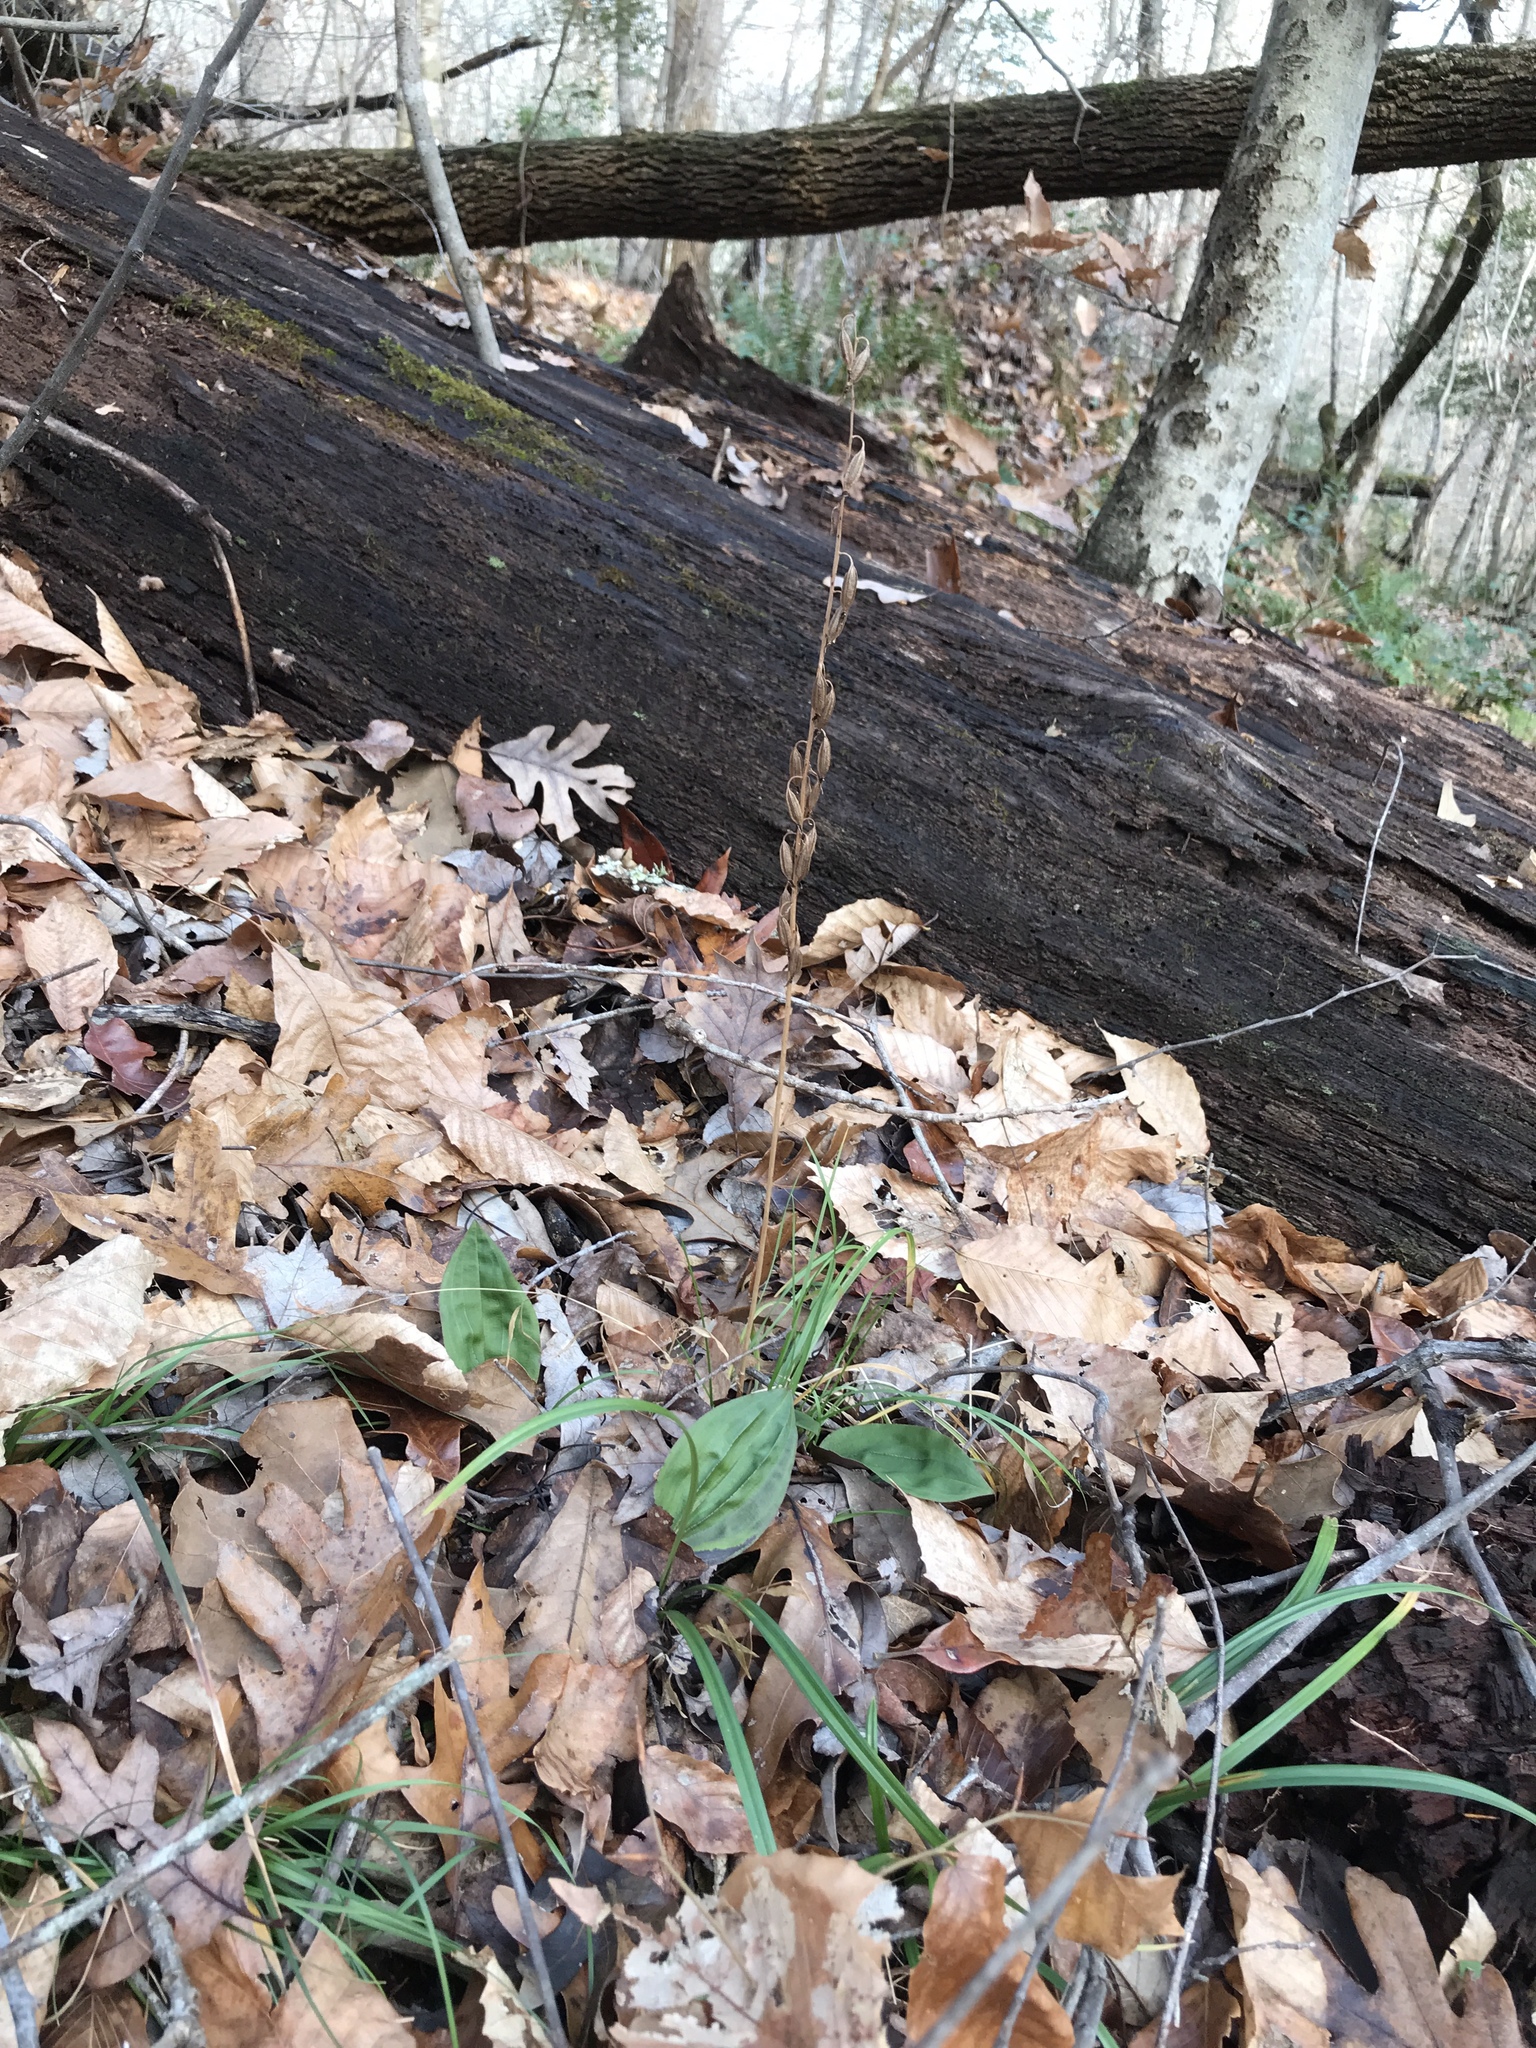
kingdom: Plantae
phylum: Tracheophyta
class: Liliopsida
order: Asparagales
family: Orchidaceae
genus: Tipularia
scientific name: Tipularia discolor
